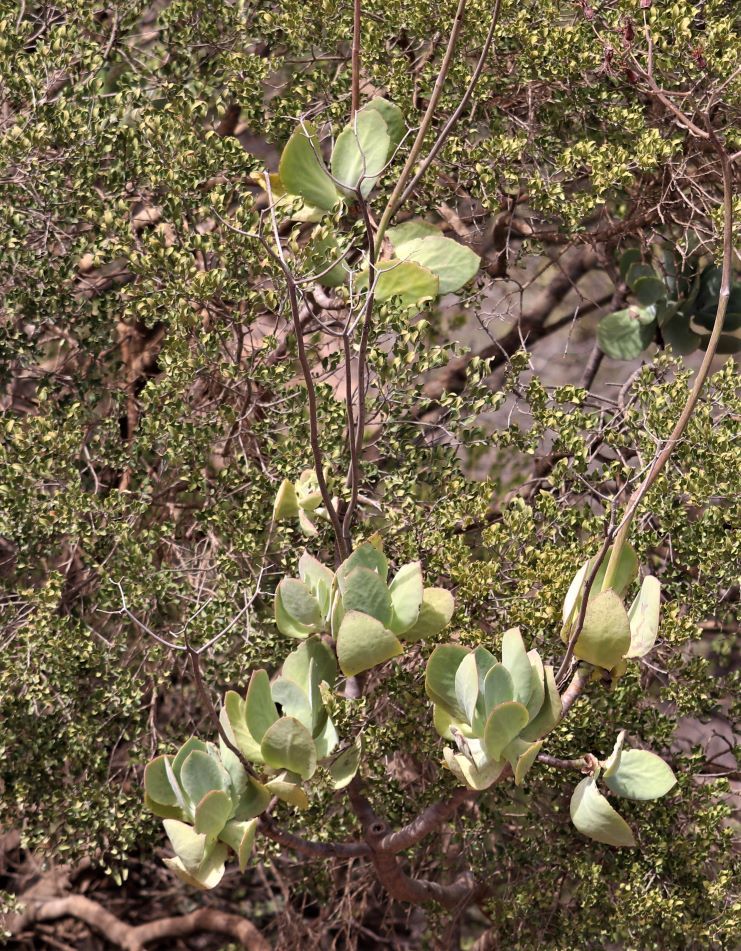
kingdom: Plantae
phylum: Tracheophyta
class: Magnoliopsida
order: Saxifragales
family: Crassulaceae
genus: Cotyledon
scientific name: Cotyledon velutina
